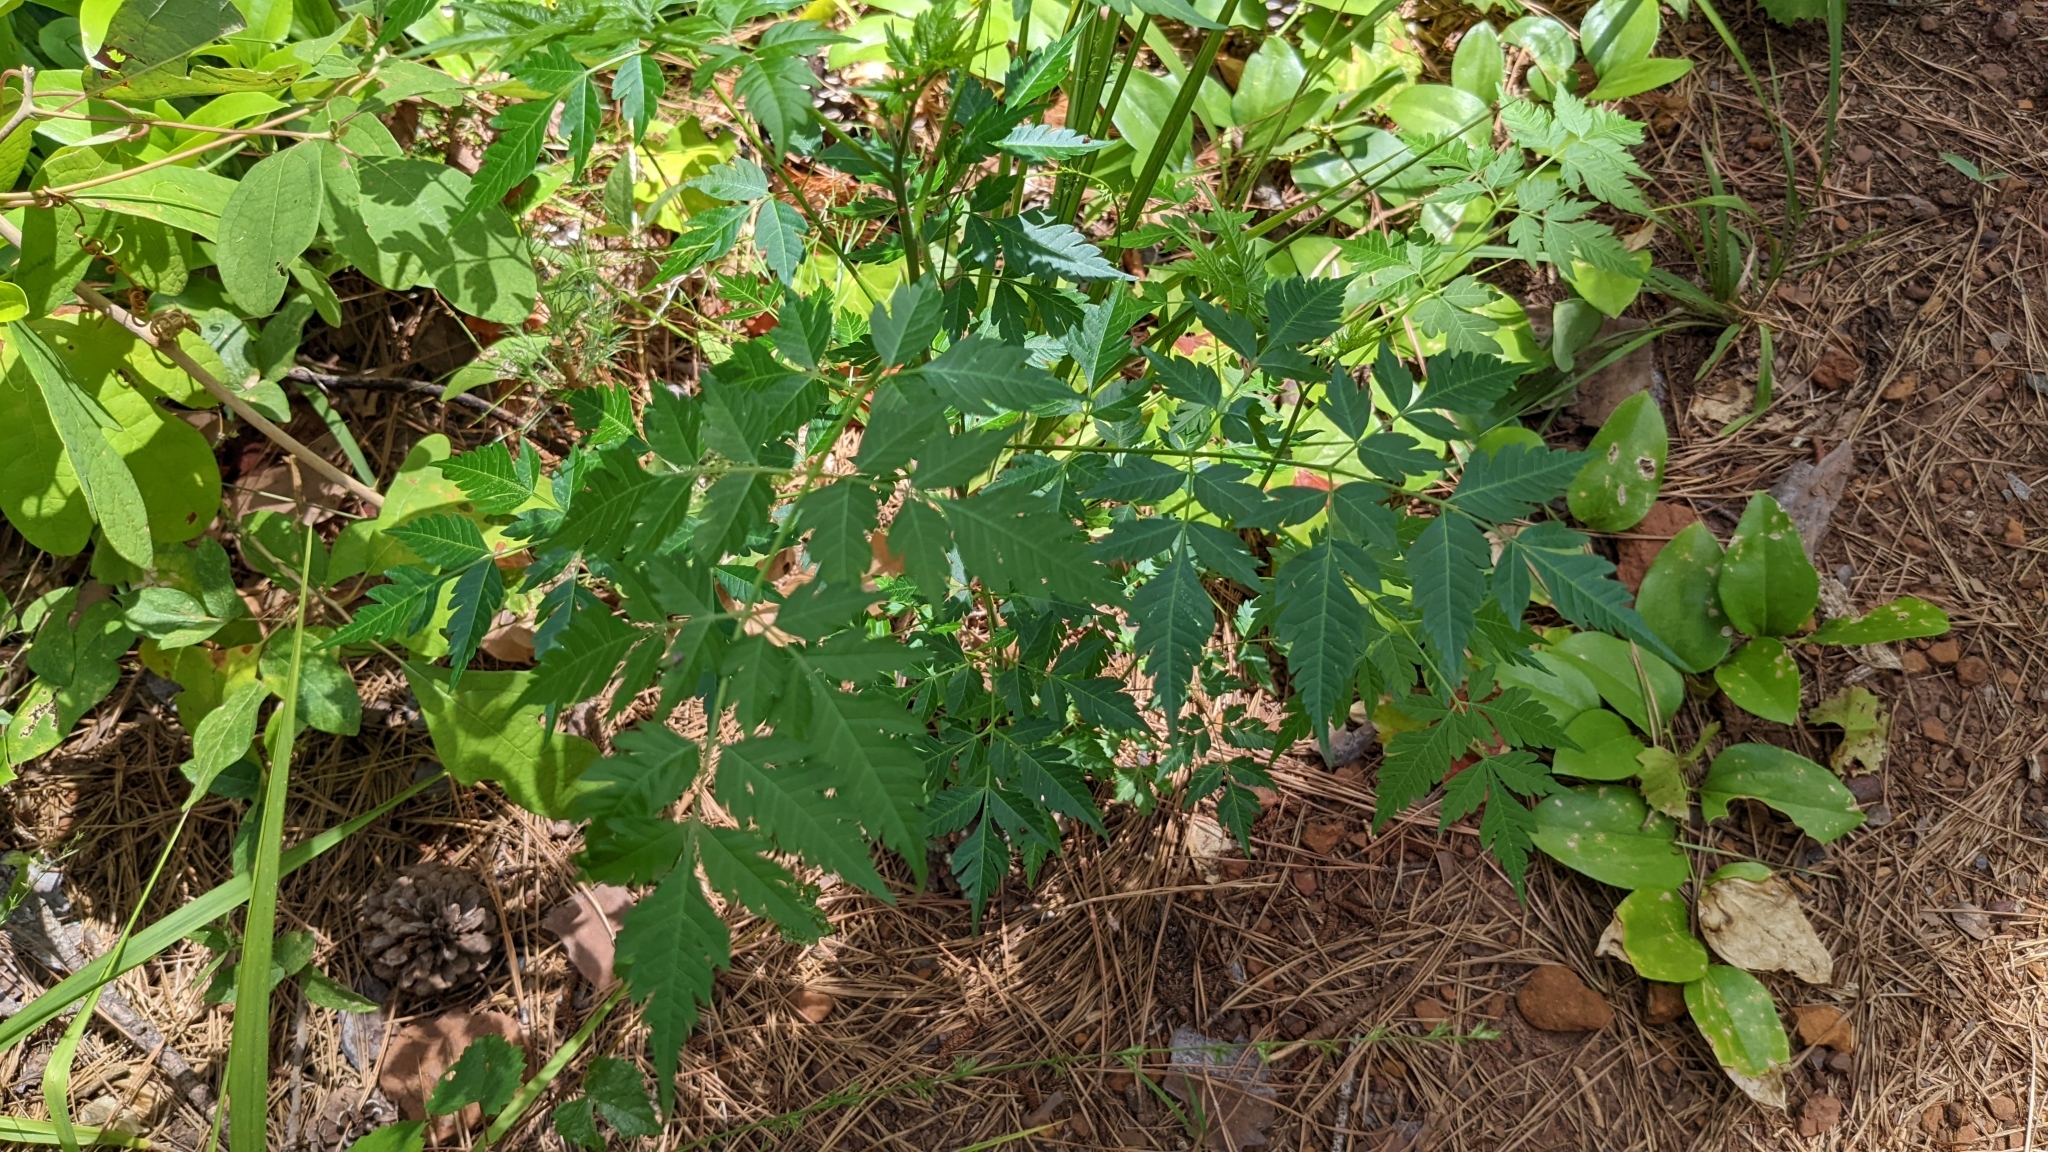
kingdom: Plantae
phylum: Tracheophyta
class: Magnoliopsida
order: Sapindales
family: Meliaceae
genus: Melia
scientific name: Melia azedarach
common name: Chinaberrytree
